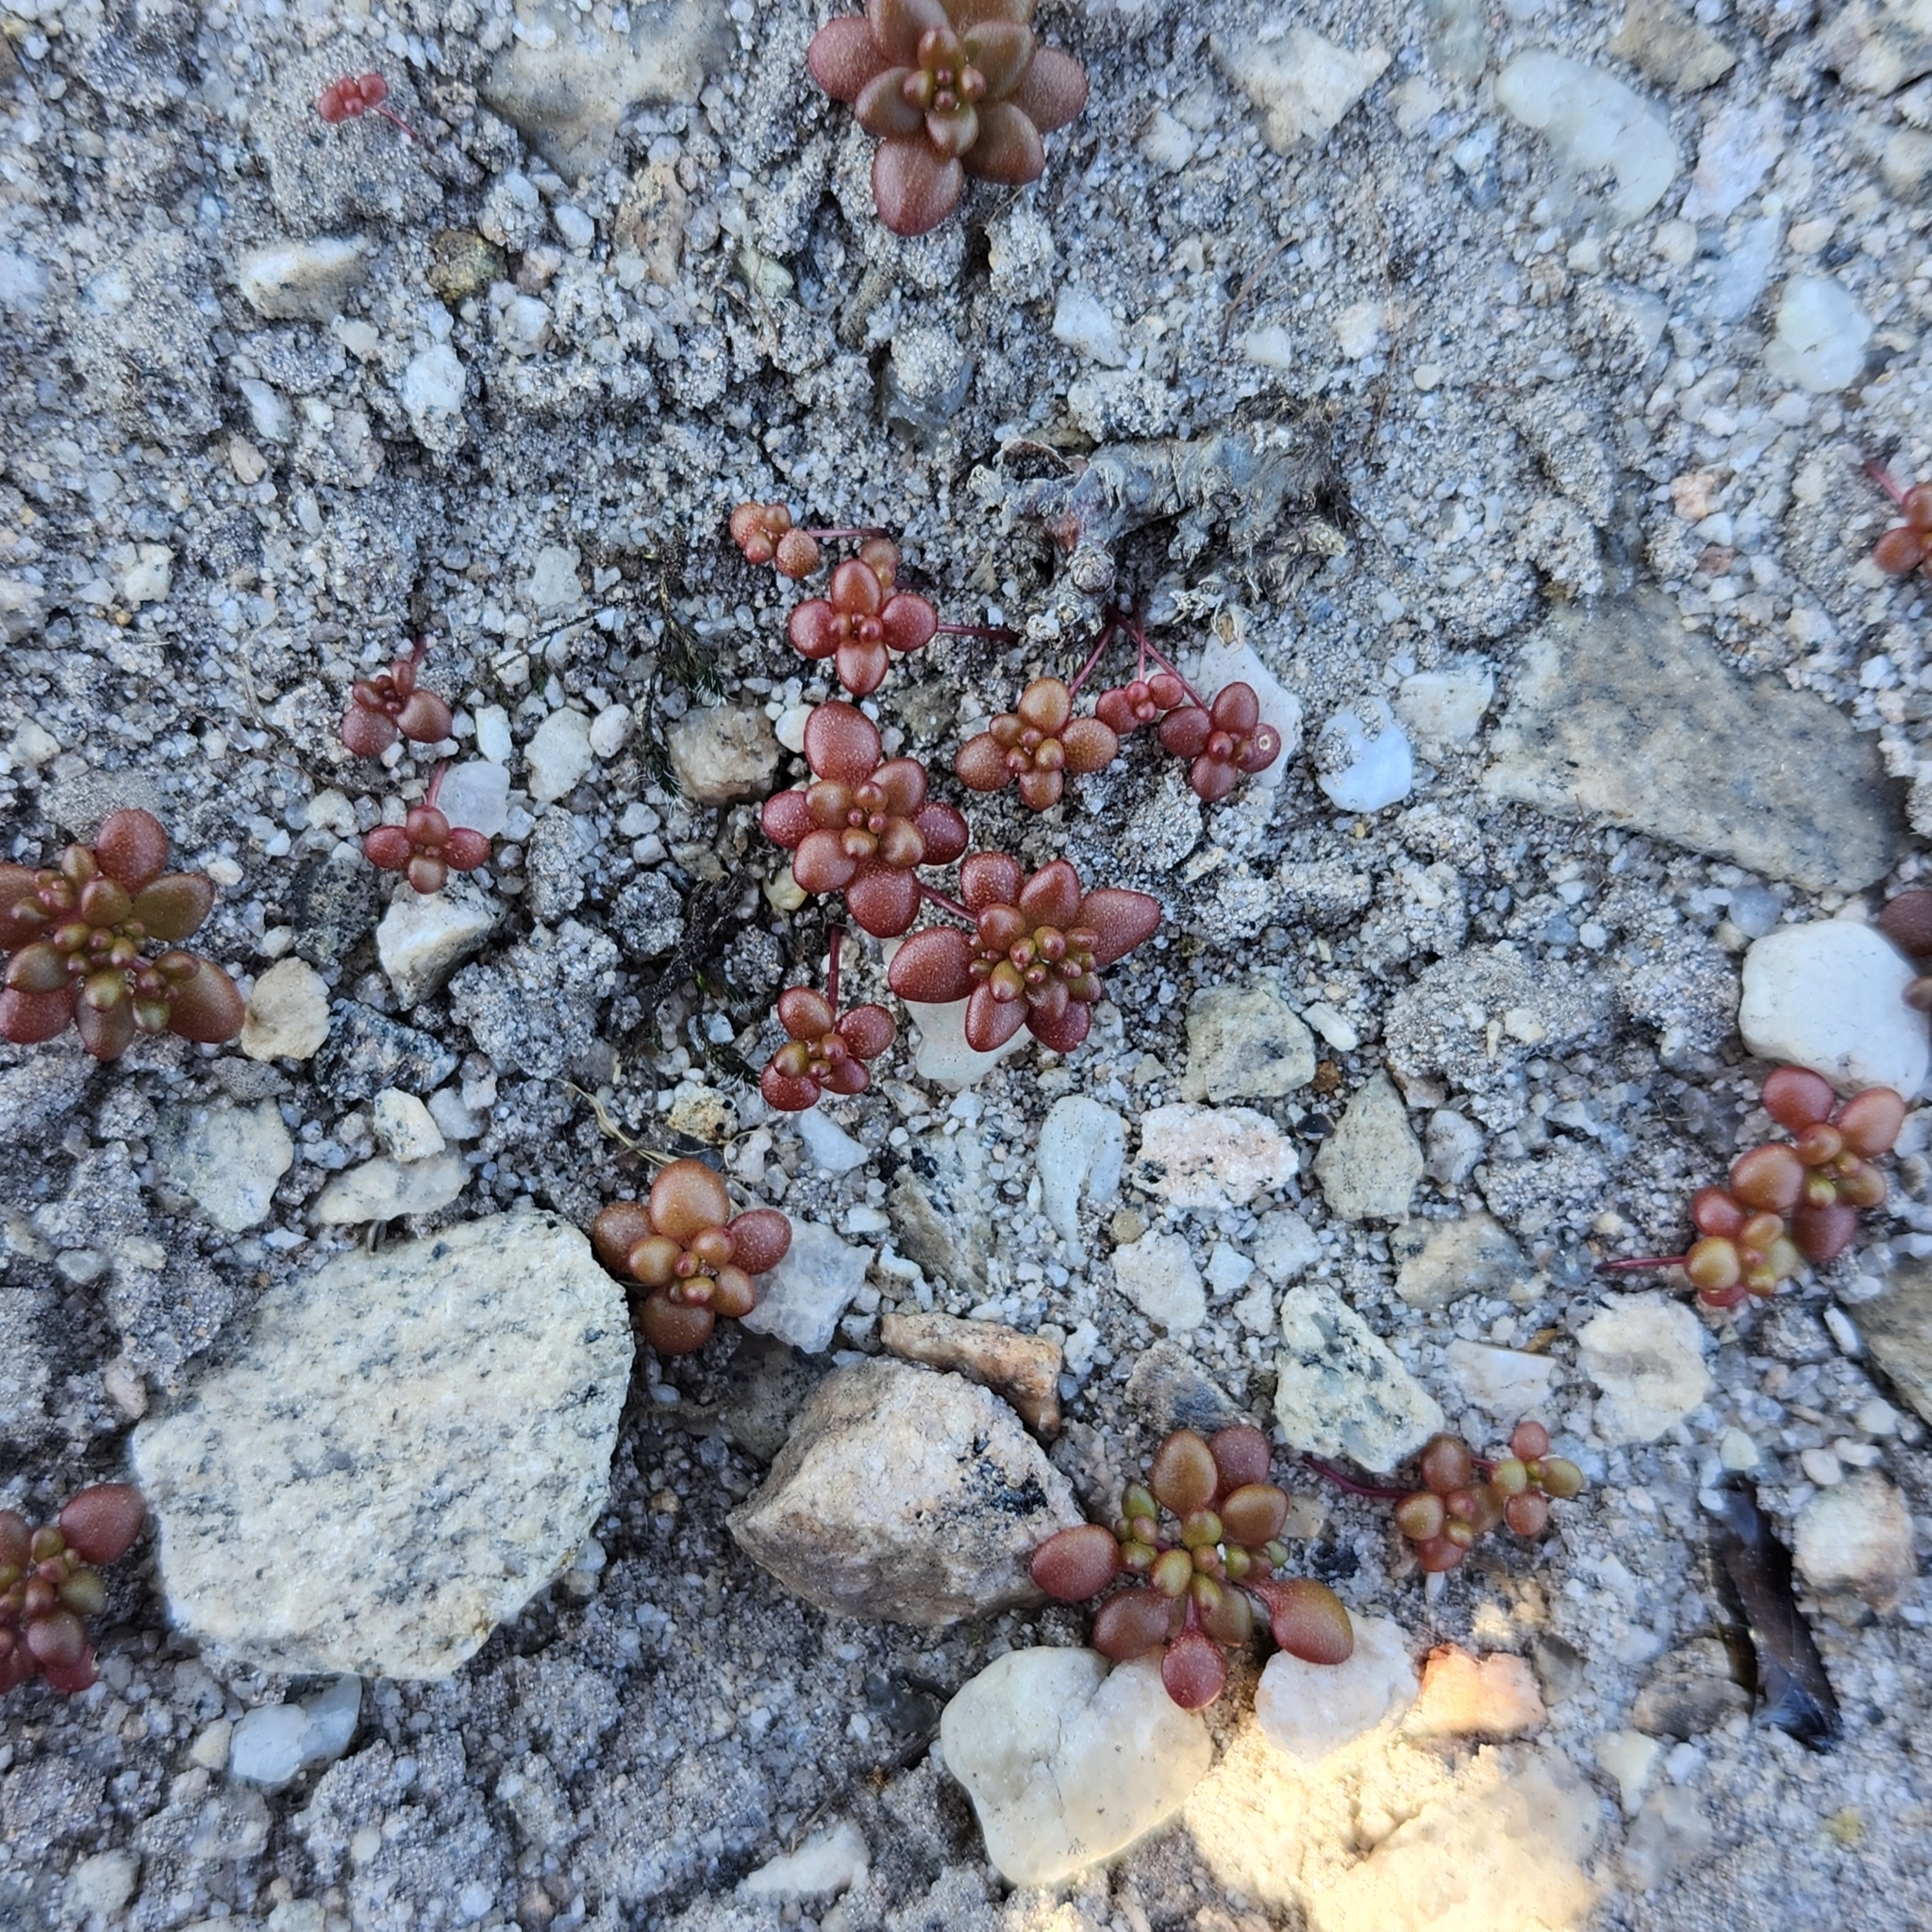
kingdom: Plantae
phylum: Tracheophyta
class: Magnoliopsida
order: Saxifragales
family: Crassulaceae
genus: Sedum
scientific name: Sedum smallii
